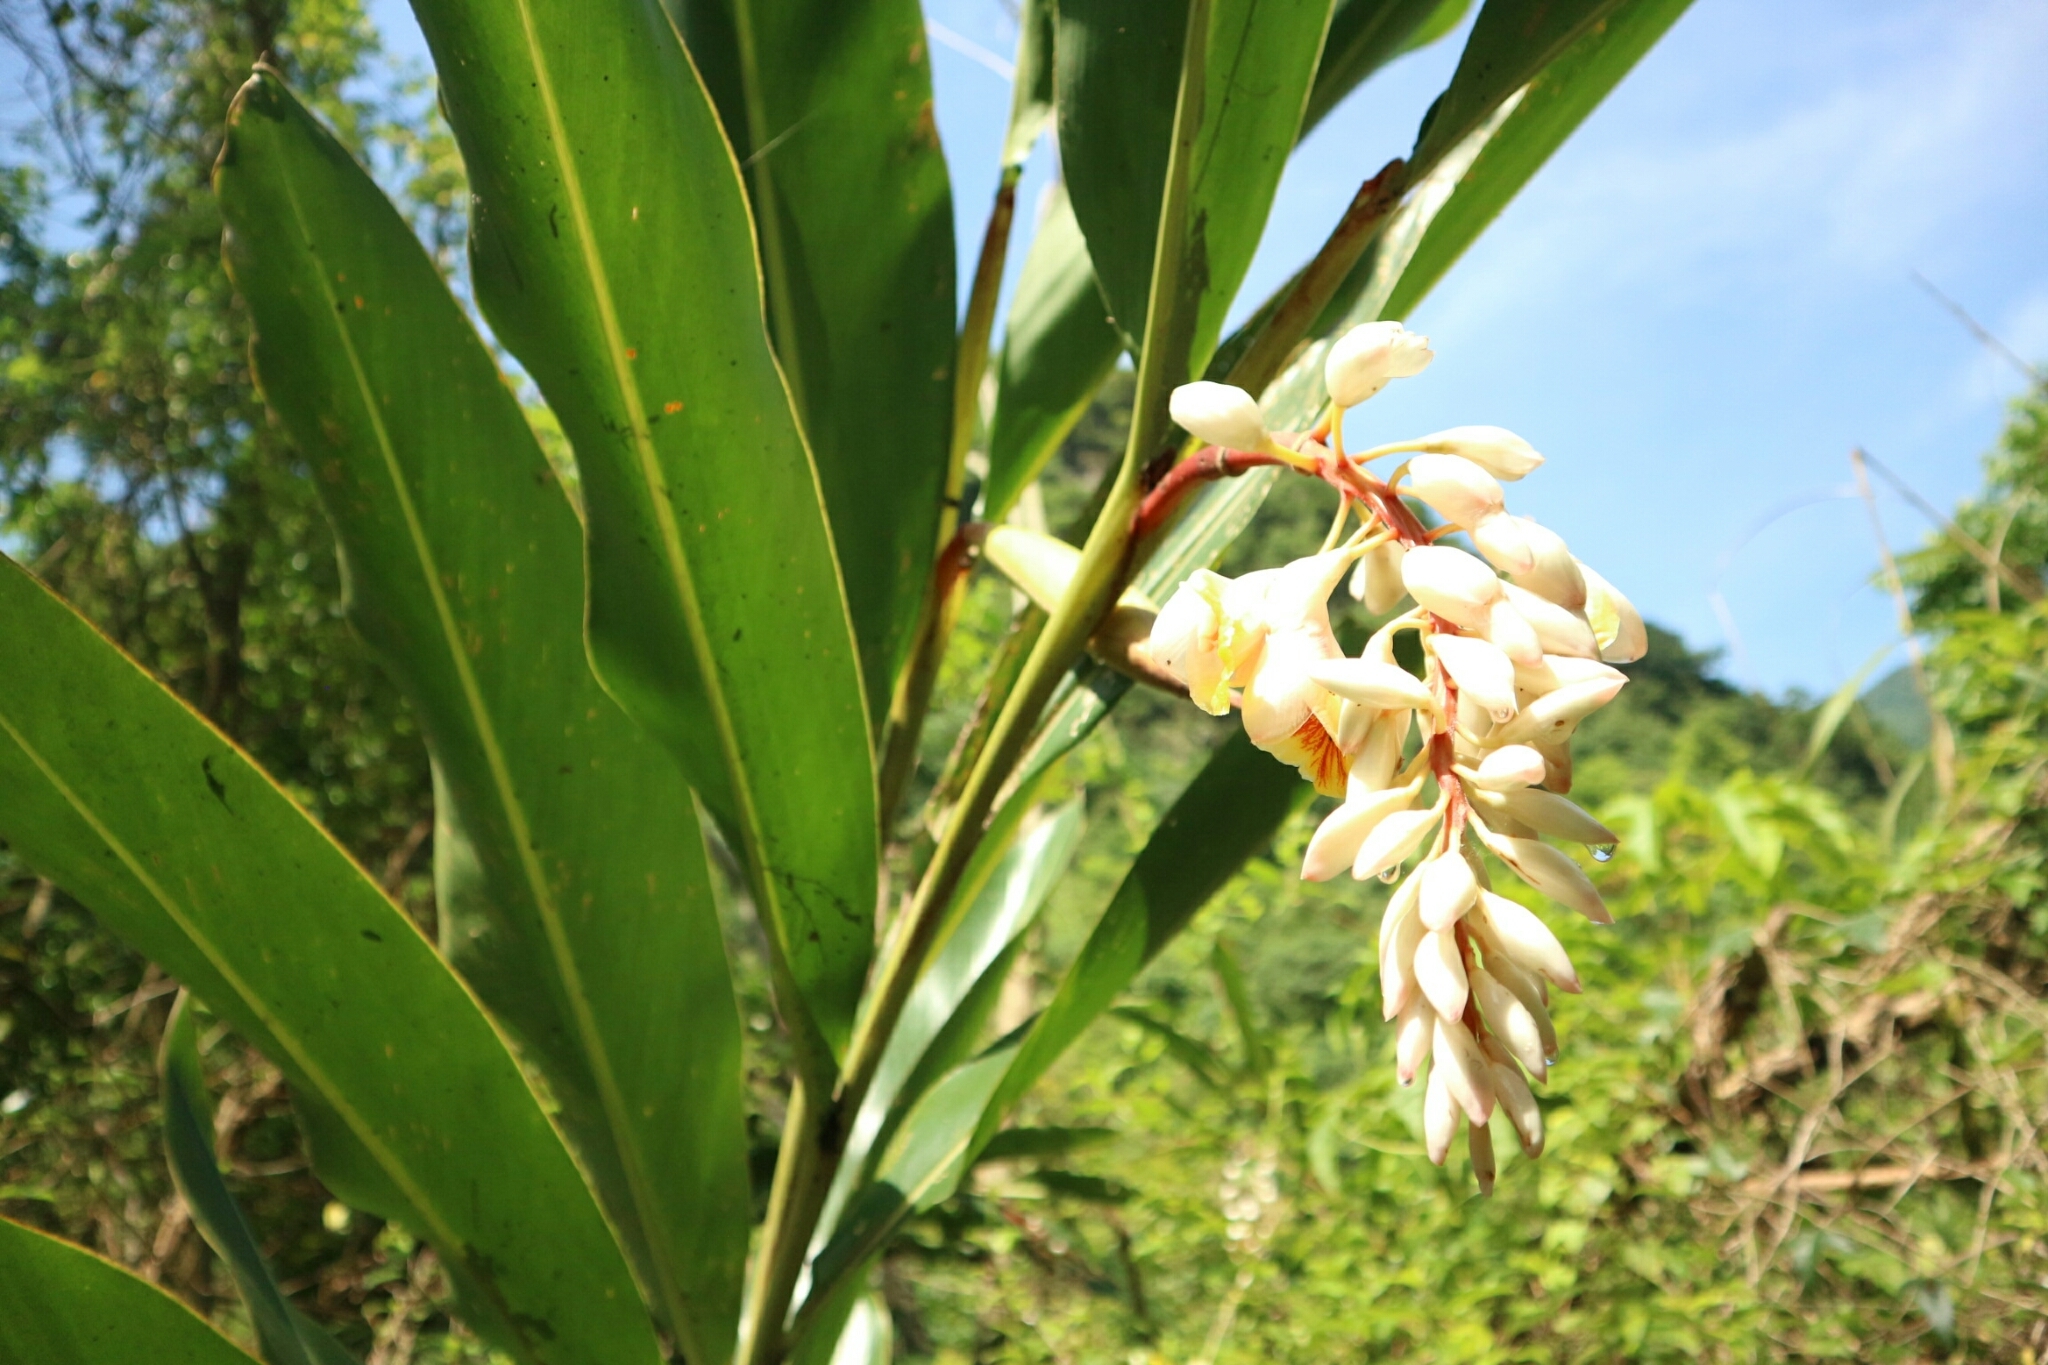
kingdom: Plantae
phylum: Tracheophyta
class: Liliopsida
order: Zingiberales
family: Zingiberaceae
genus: Alpinia
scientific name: Alpinia zerumbet
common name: Shellplant
